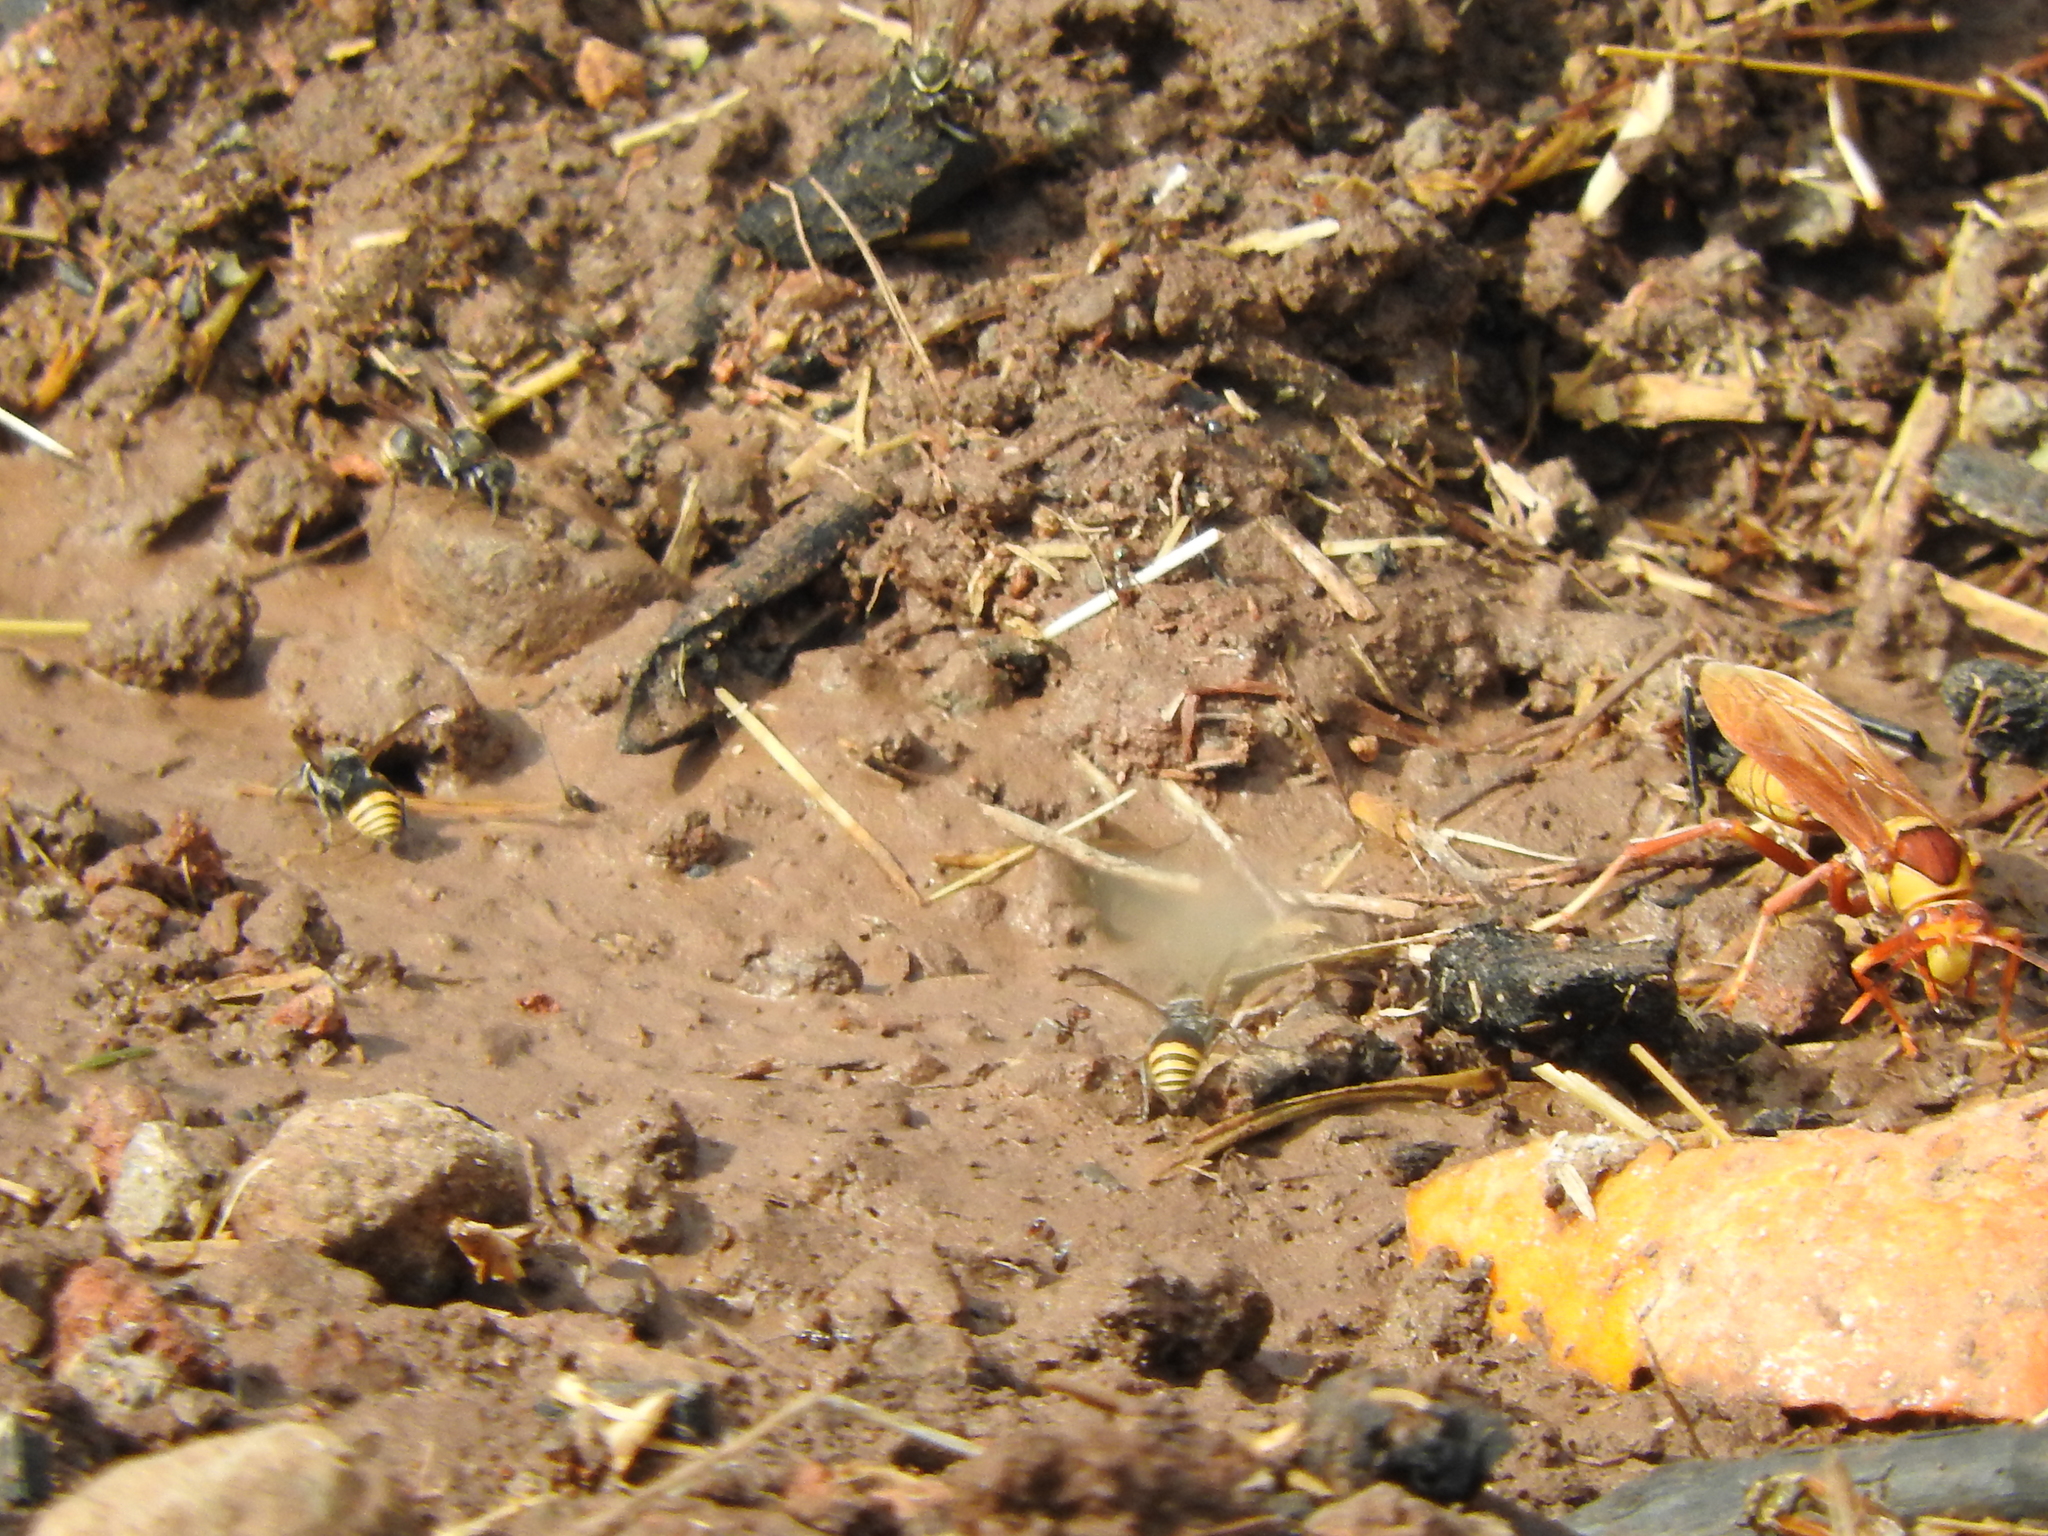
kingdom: Animalia
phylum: Arthropoda
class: Insecta
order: Hymenoptera
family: Eumenidae
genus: Polistes
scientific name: Polistes major
